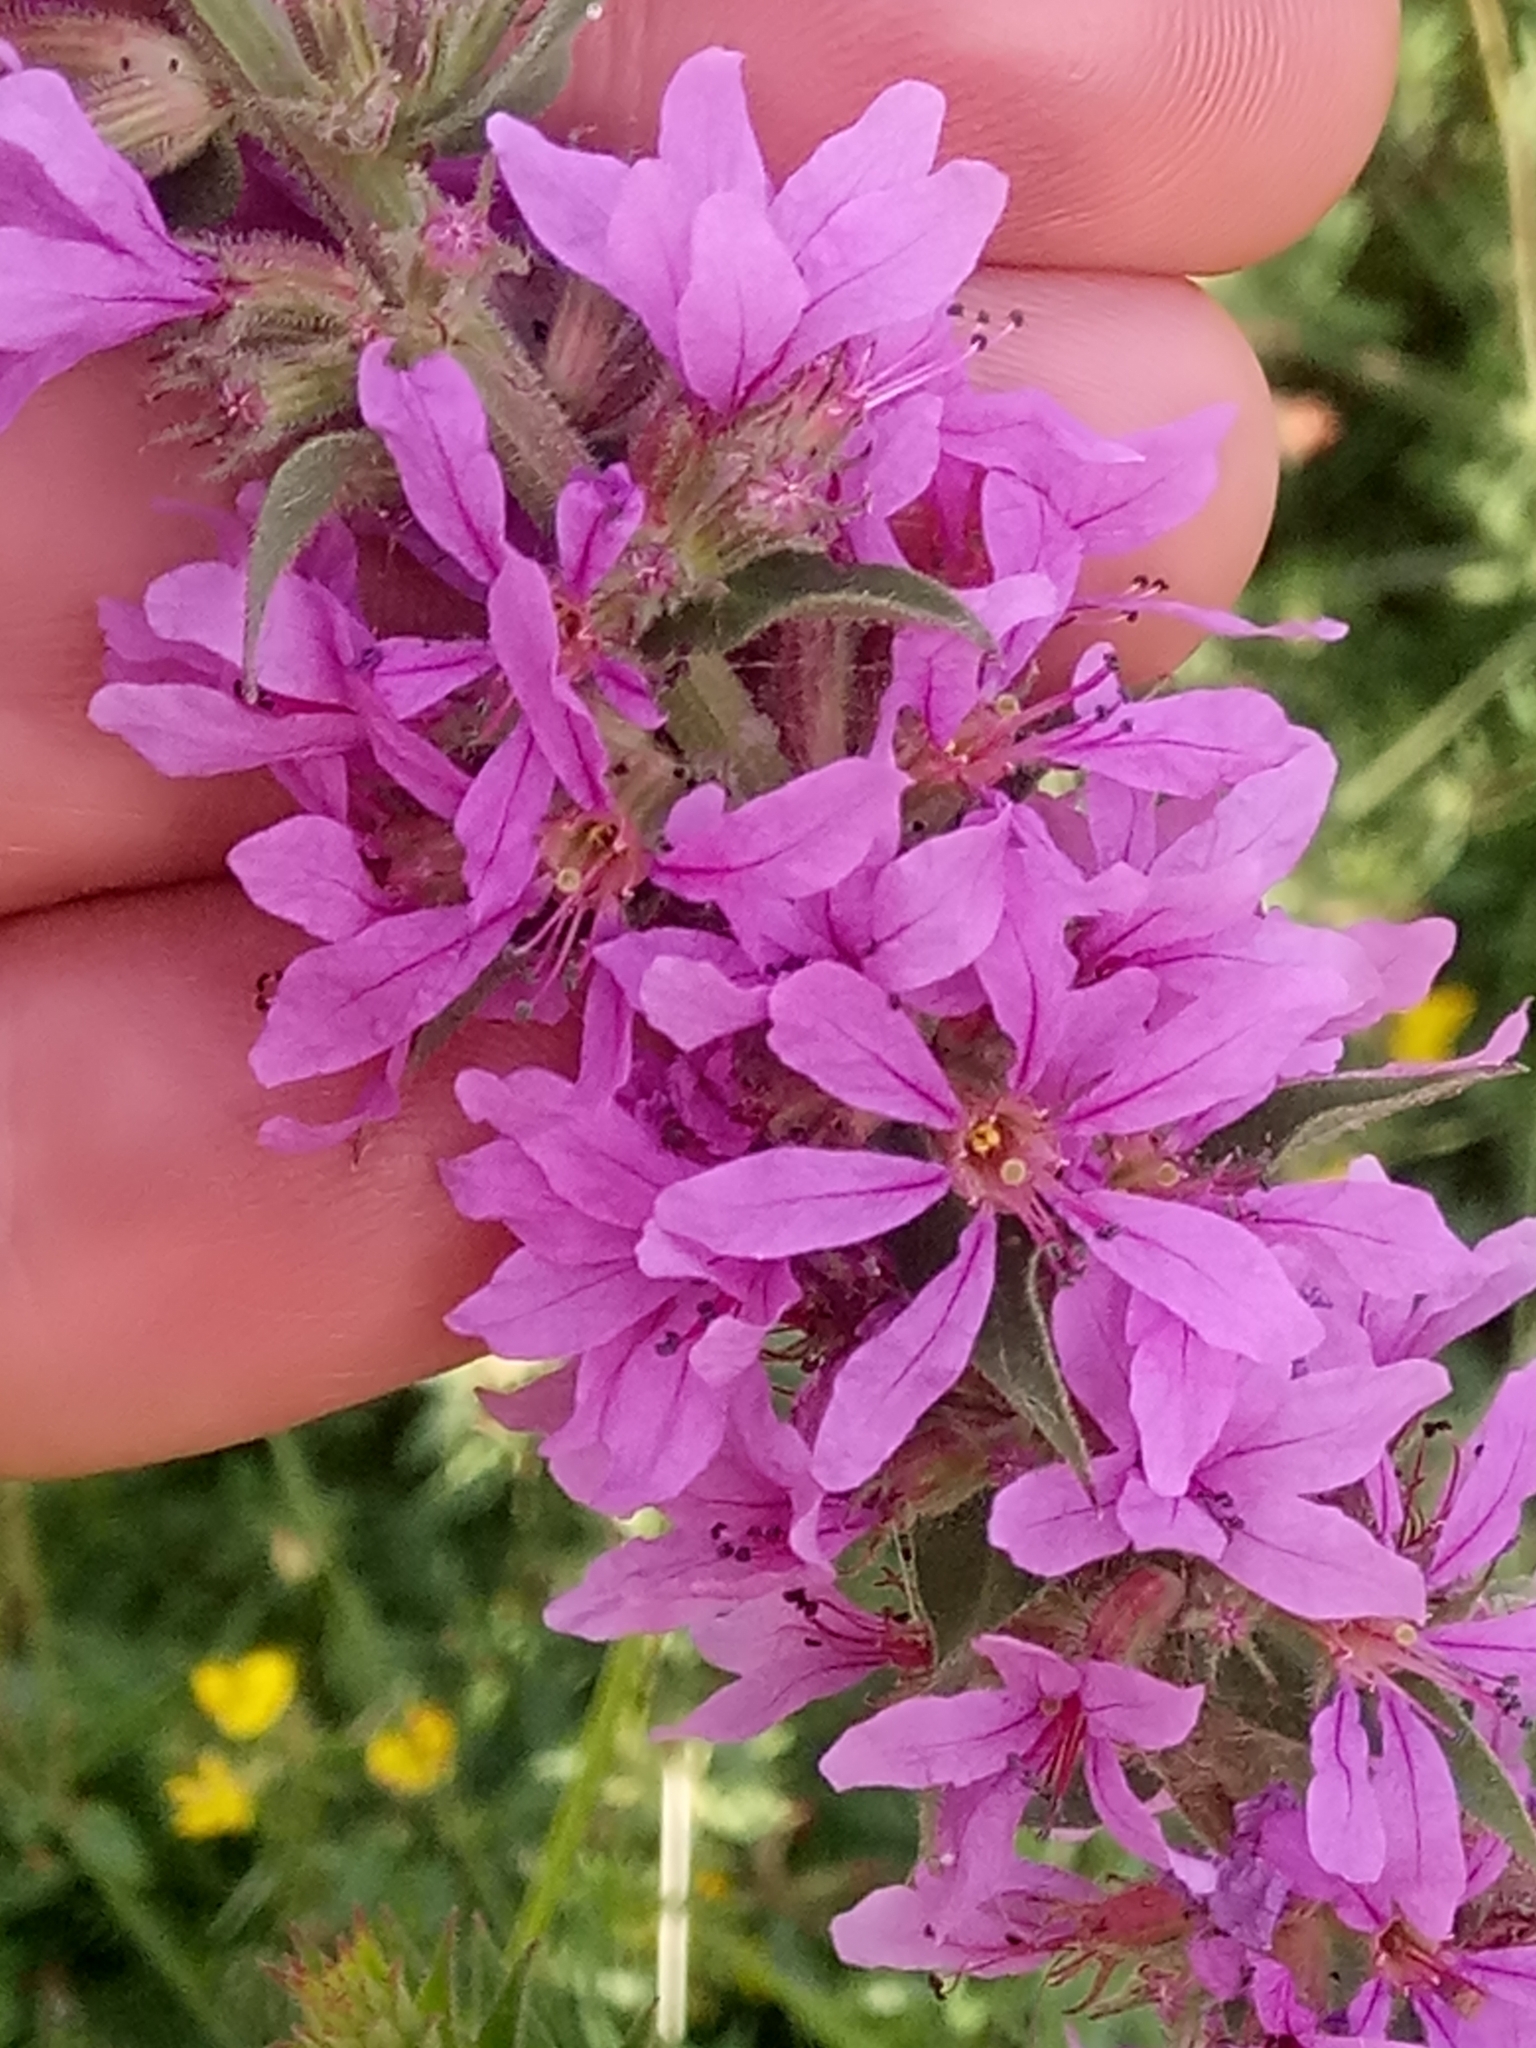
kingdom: Plantae
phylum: Tracheophyta
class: Magnoliopsida
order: Myrtales
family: Lythraceae
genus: Lythrum
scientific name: Lythrum salicaria
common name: Purple loosestrife
